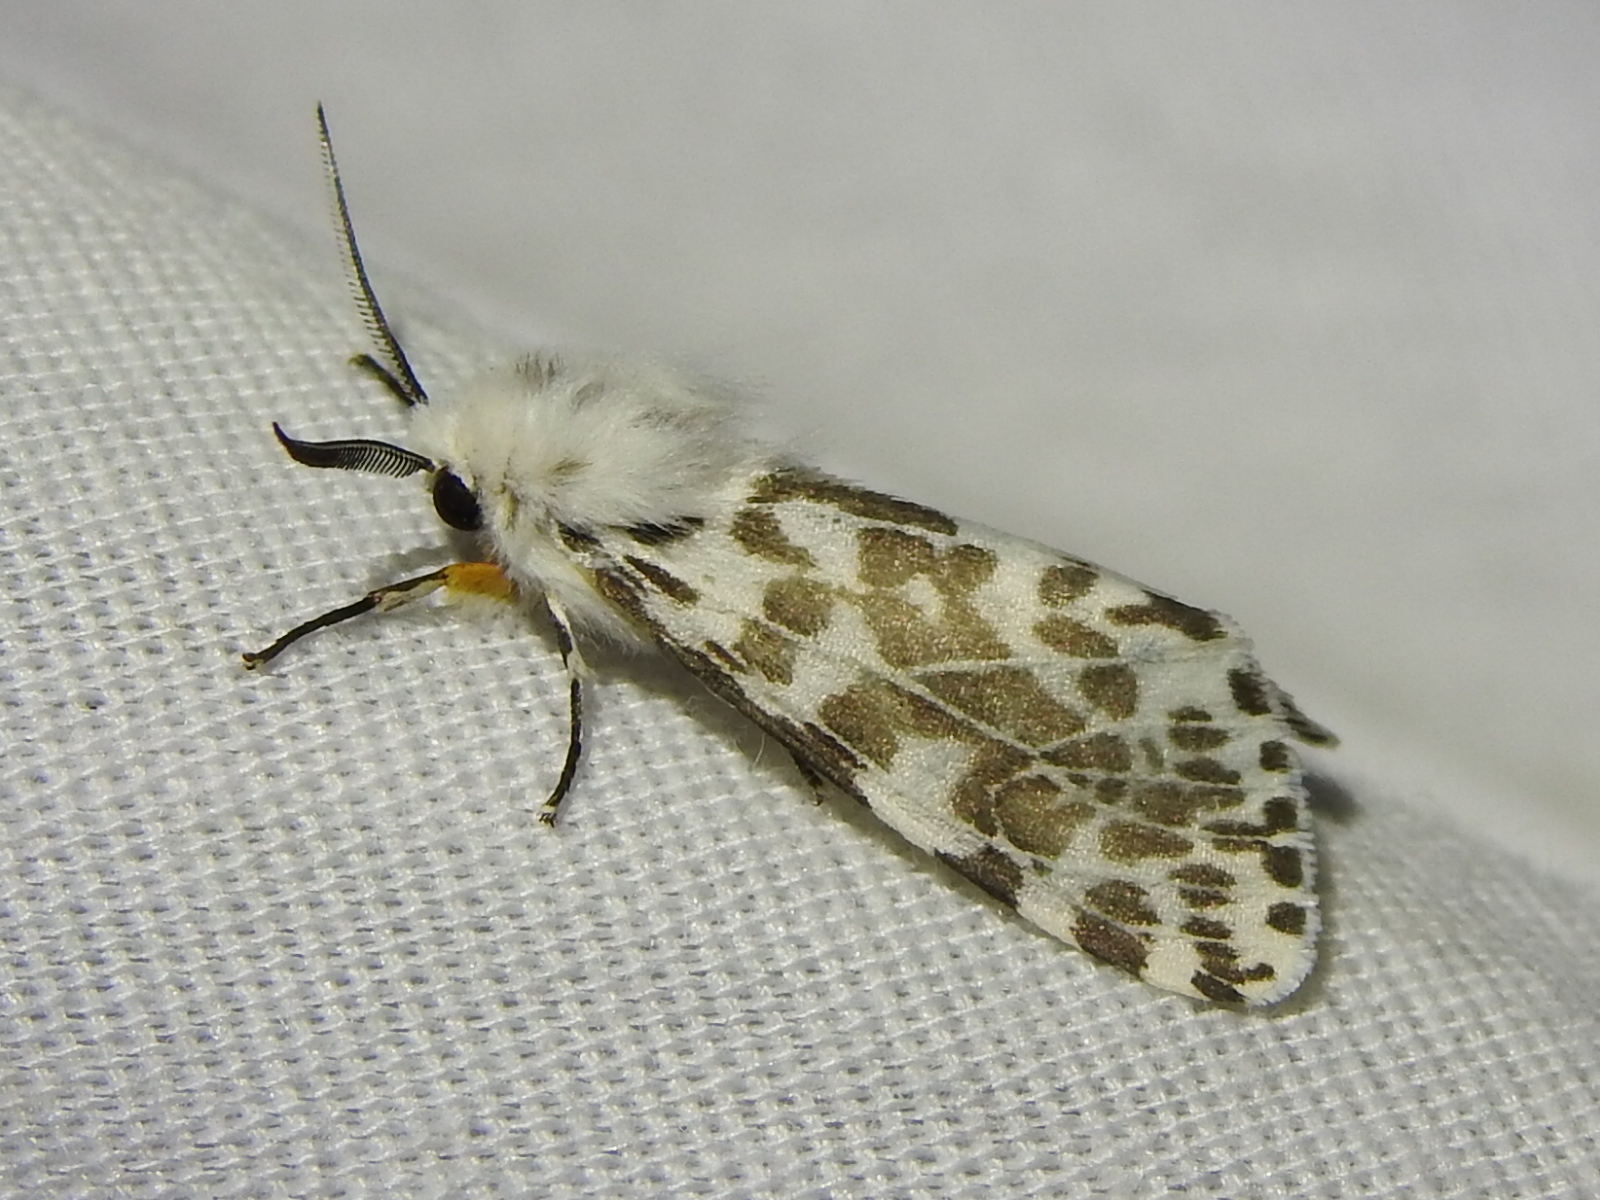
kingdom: Animalia
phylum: Arthropoda
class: Insecta
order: Lepidoptera
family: Erebidae
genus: Hyphantria
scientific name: Hyphantria cunea
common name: American white moth
